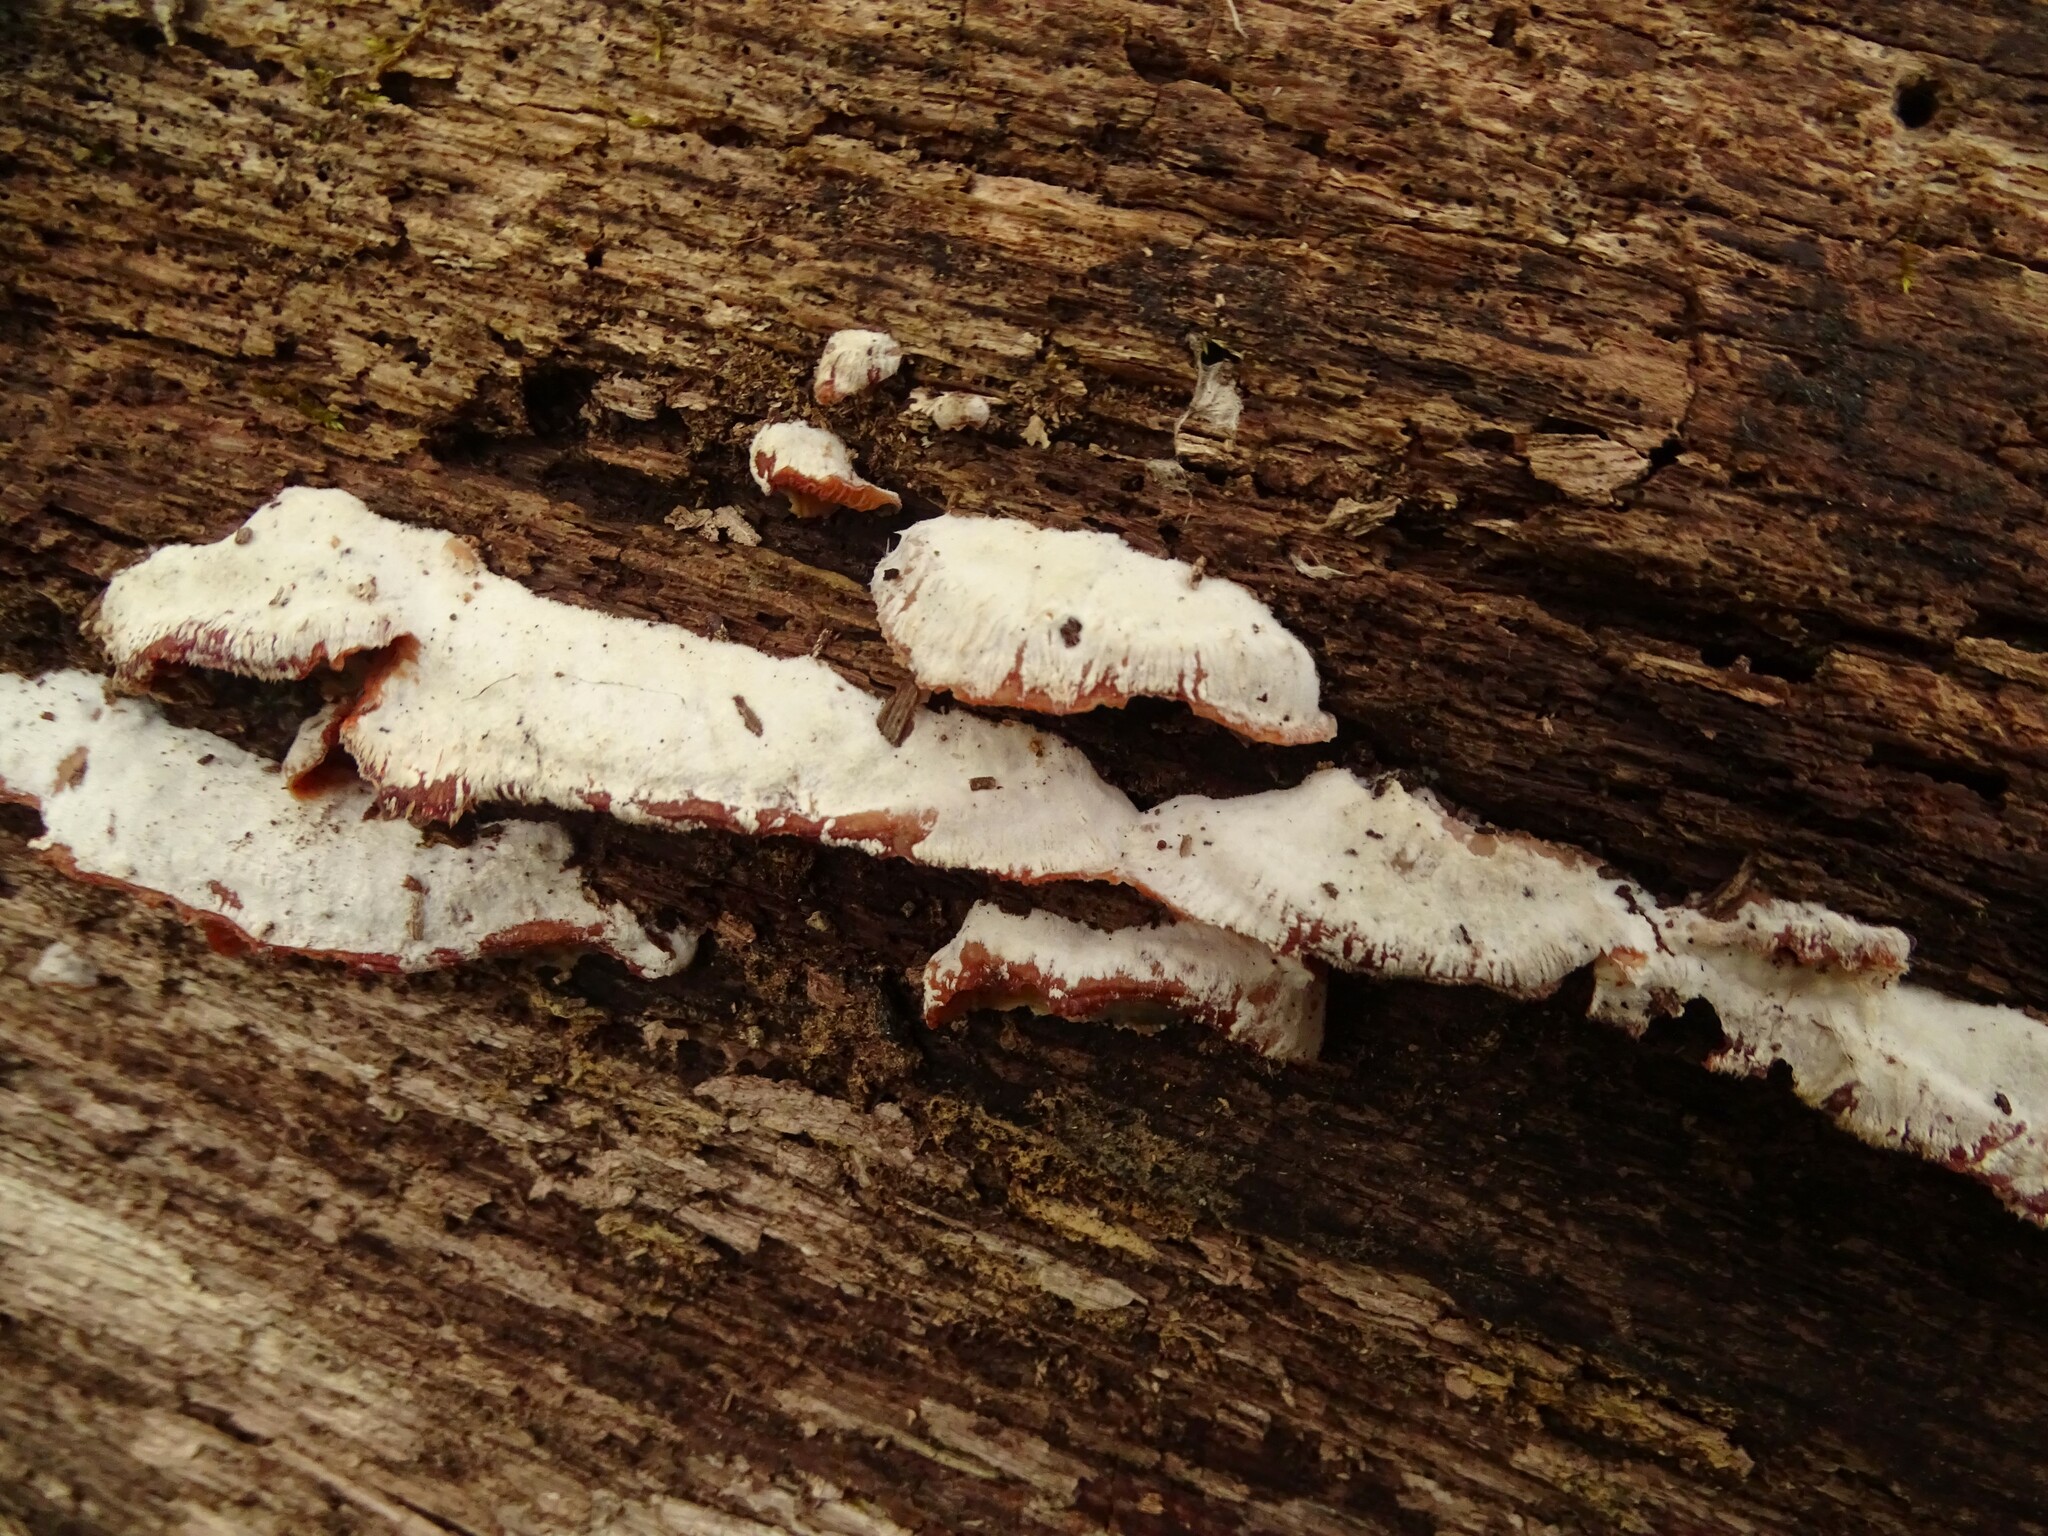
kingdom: Fungi
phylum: Basidiomycota
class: Agaricomycetes
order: Polyporales
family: Meruliaceae
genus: Phlebia
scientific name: Phlebia tremellosa
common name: Jelly rot
